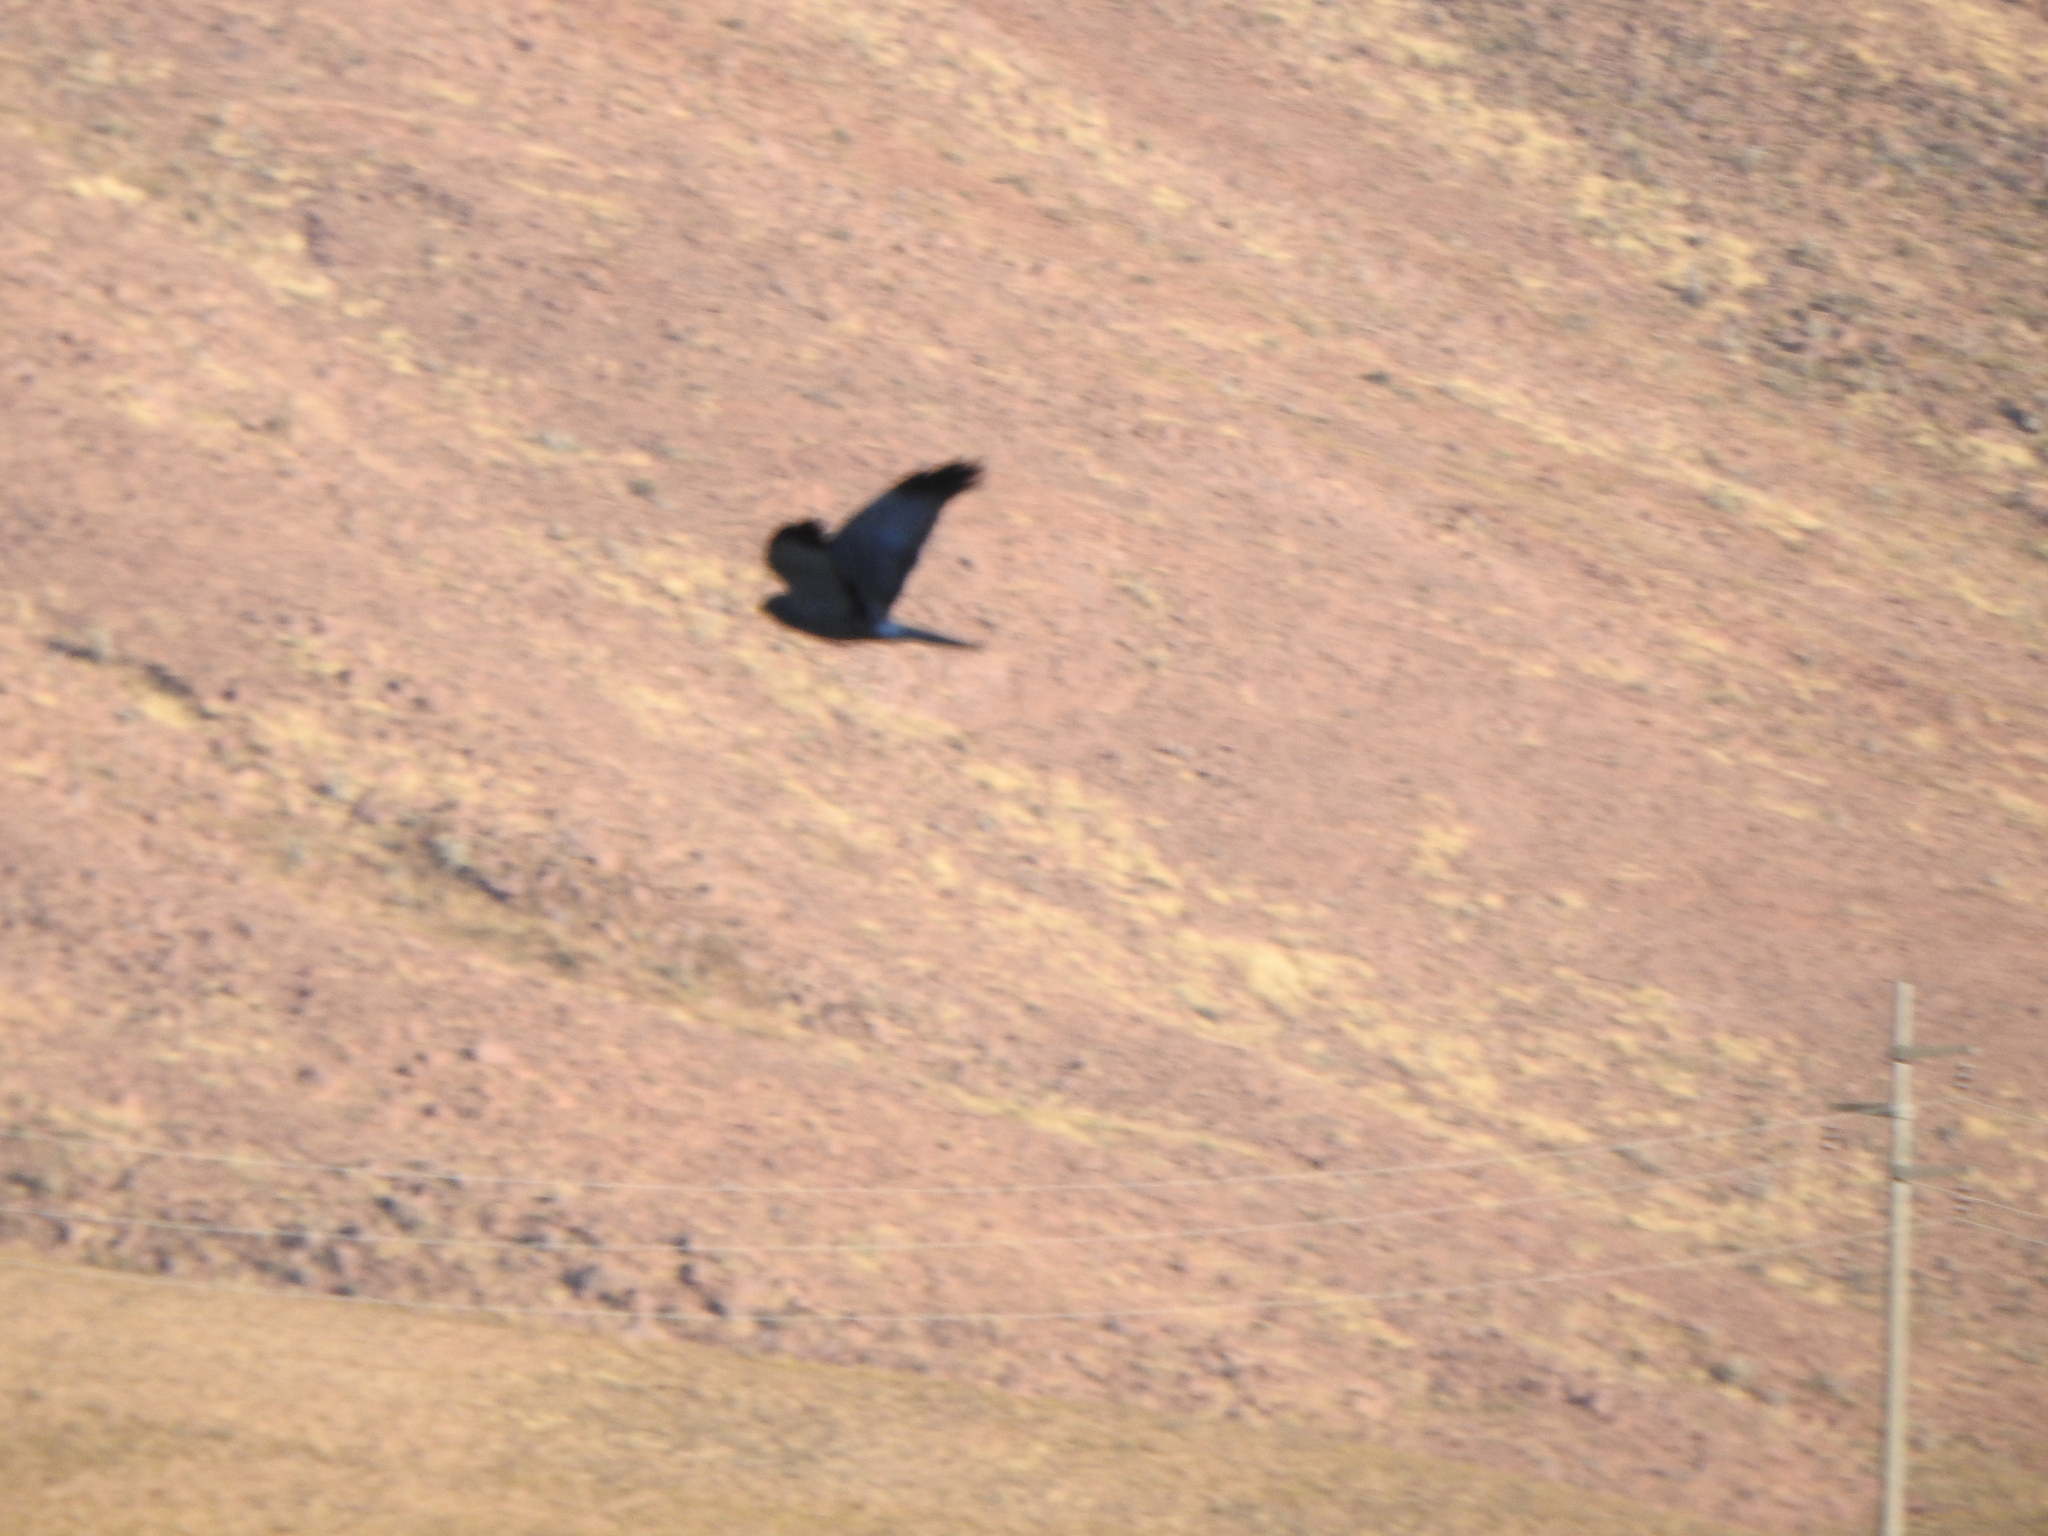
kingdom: Animalia
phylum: Chordata
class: Aves
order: Accipitriformes
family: Accipitridae
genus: Circus
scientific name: Circus cinereus
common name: Cinereous harrier
